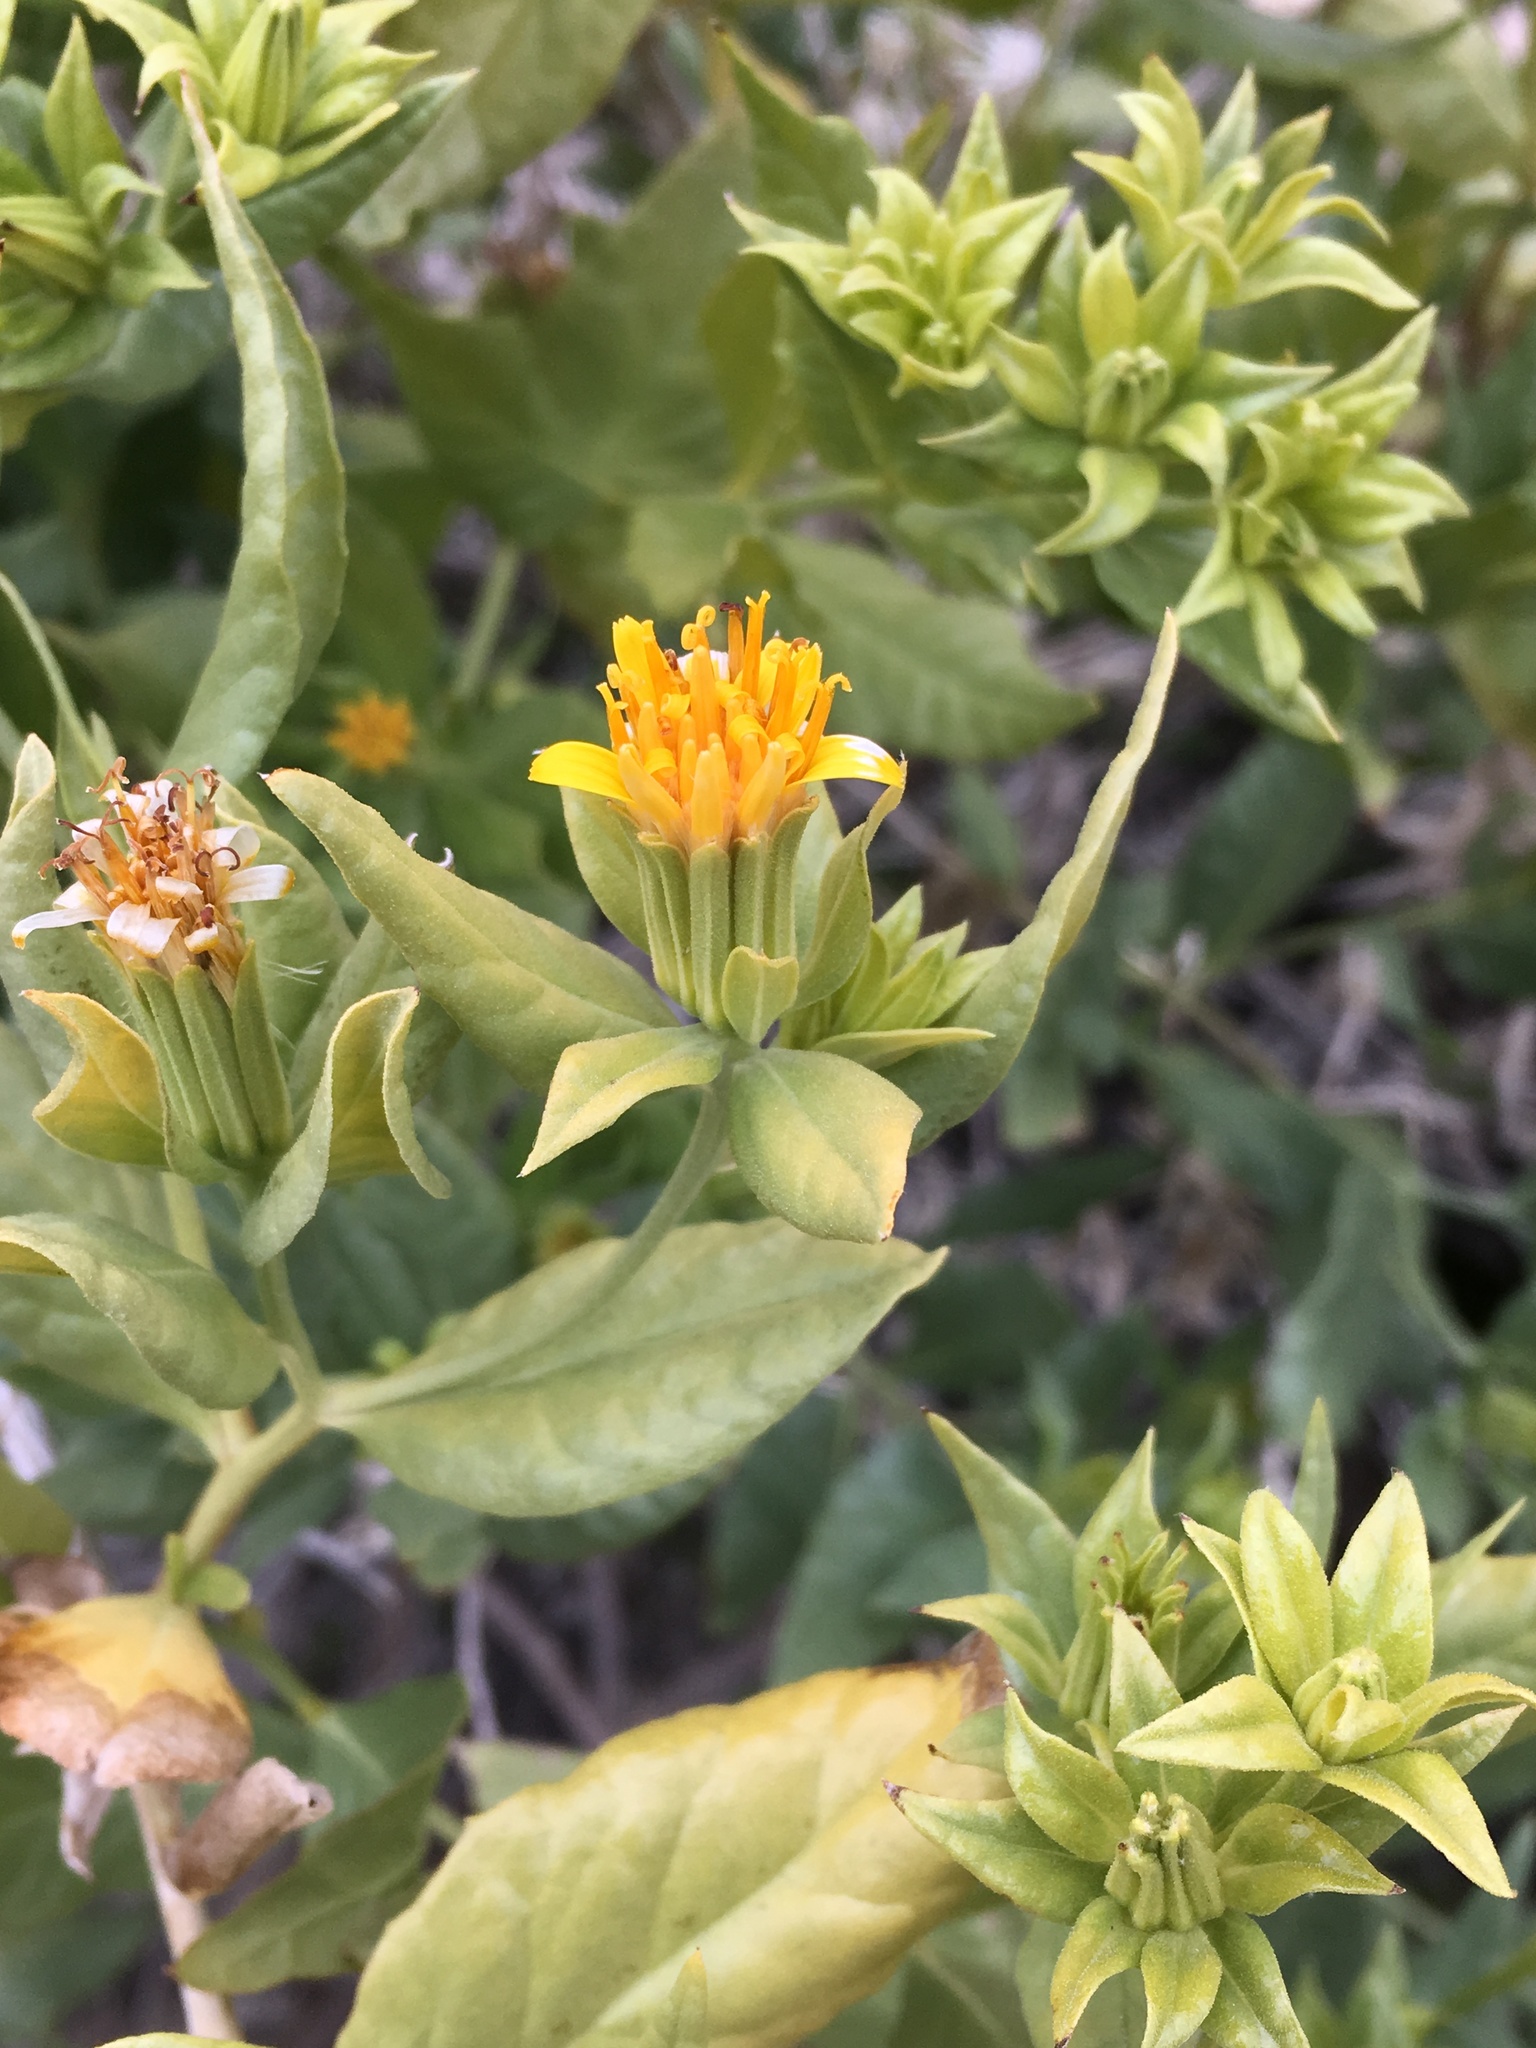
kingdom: Plantae
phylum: Tracheophyta
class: Magnoliopsida
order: Asterales
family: Asteraceae
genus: Trixis
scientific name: Trixis californica
